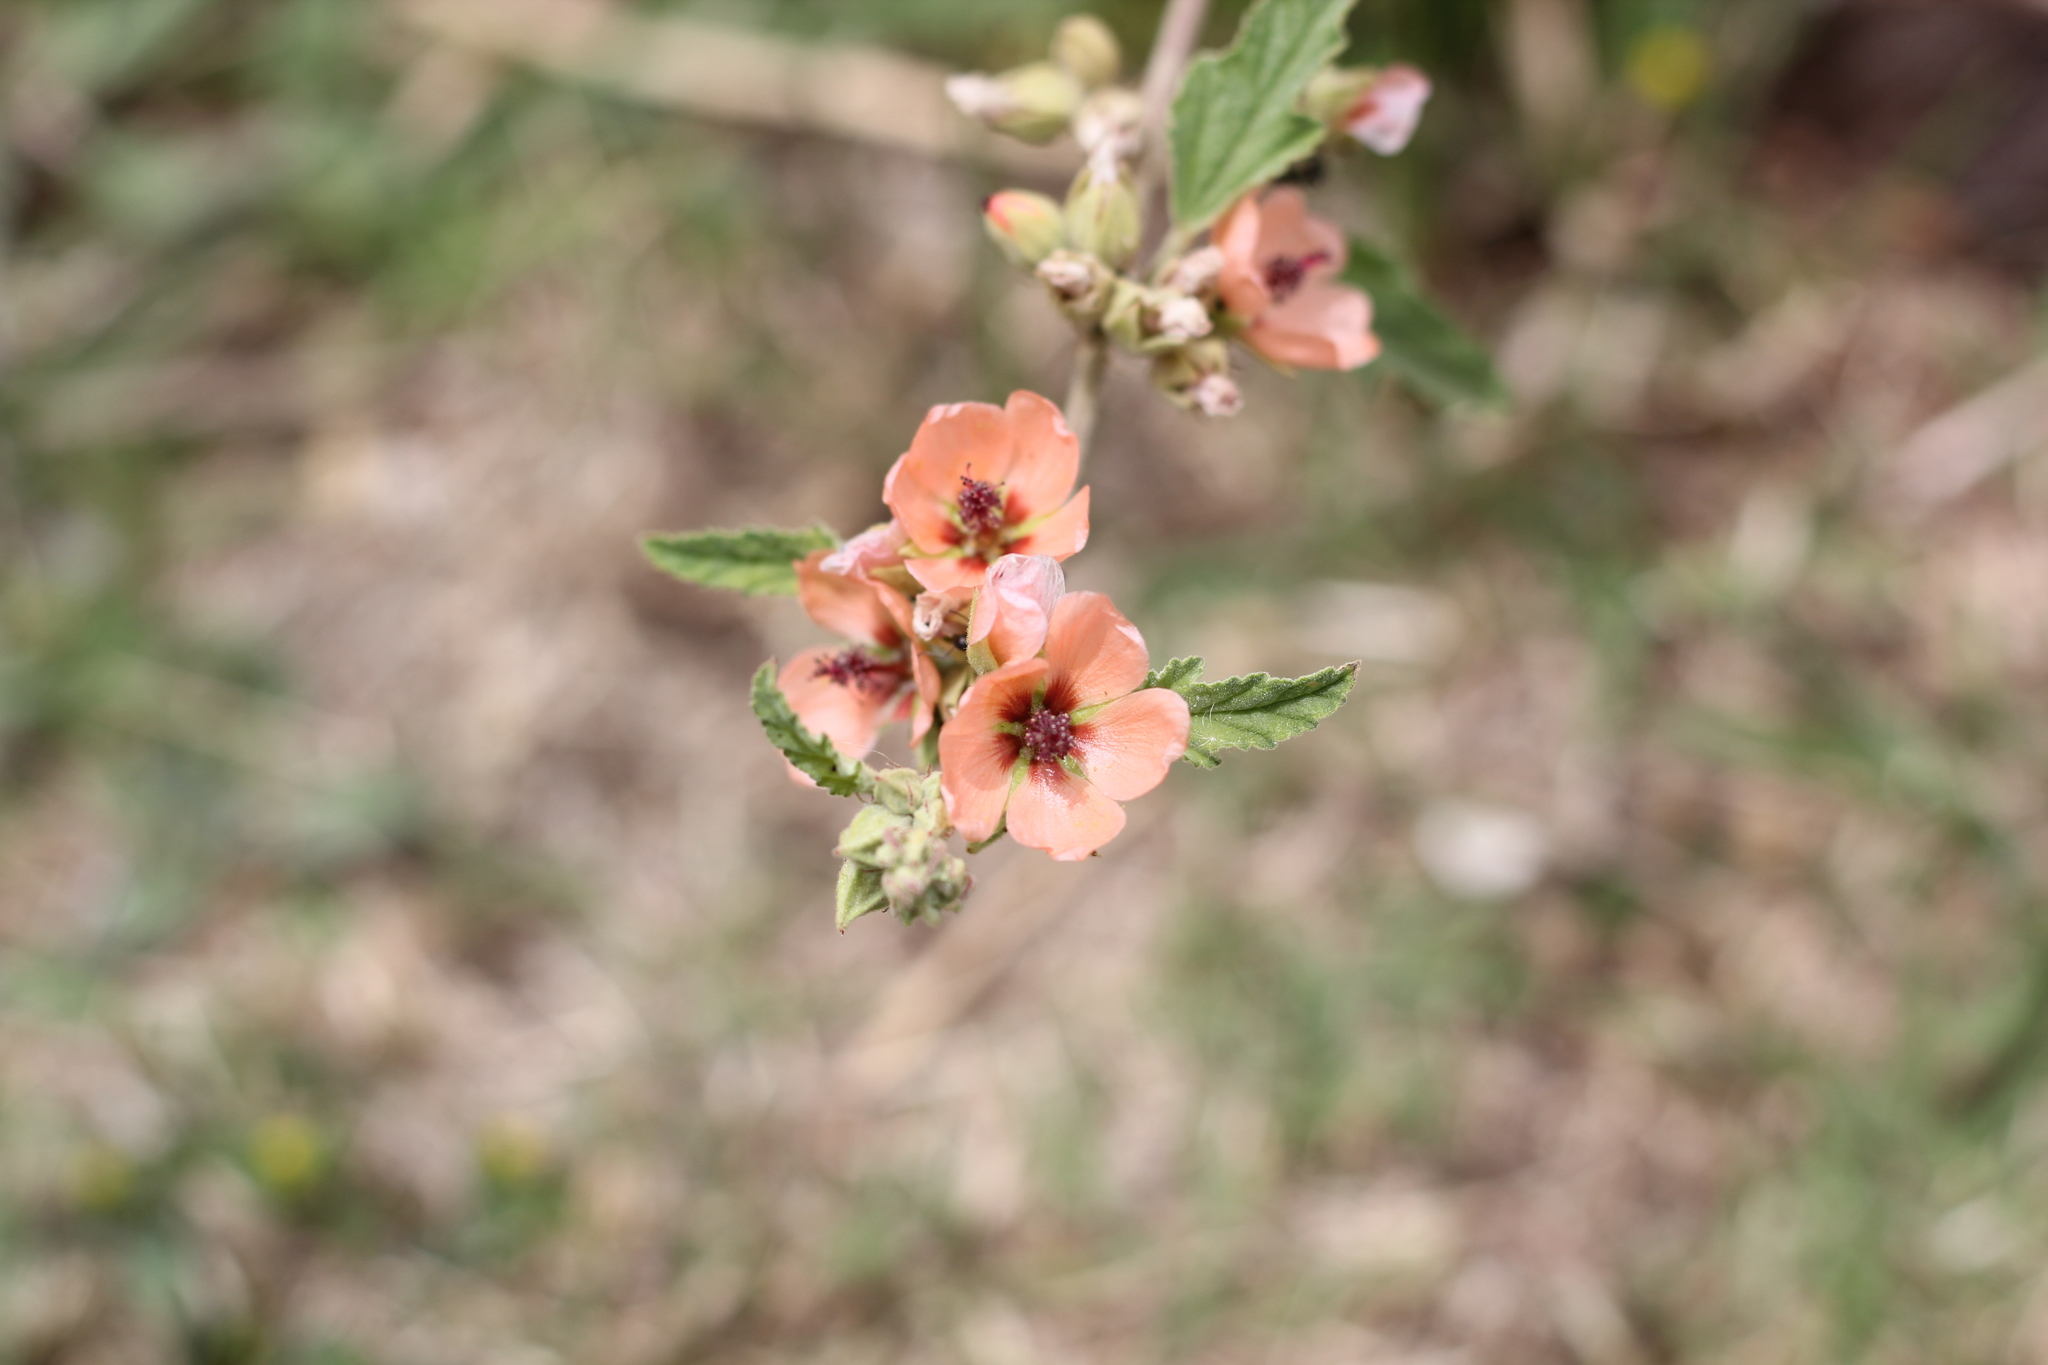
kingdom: Plantae
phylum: Tracheophyta
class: Magnoliopsida
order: Malvales
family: Malvaceae
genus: Sphaeralcea
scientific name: Sphaeralcea bonariensis
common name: Latin globemallow
